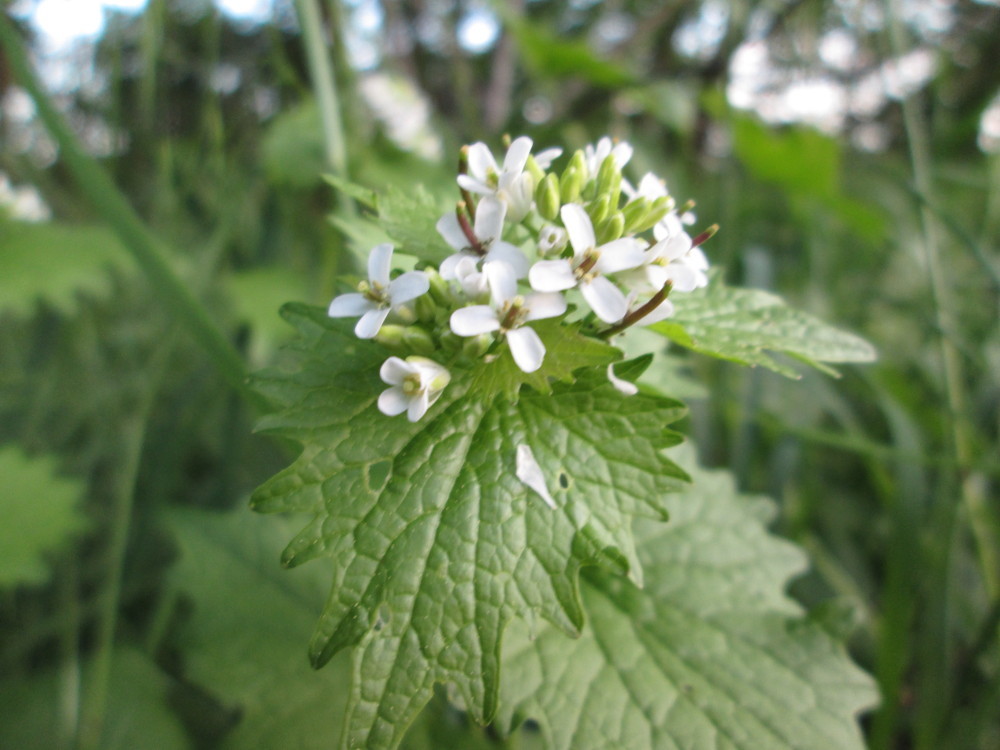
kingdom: Plantae
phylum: Tracheophyta
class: Magnoliopsida
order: Brassicales
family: Brassicaceae
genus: Alliaria
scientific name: Alliaria petiolata
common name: Garlic mustard
